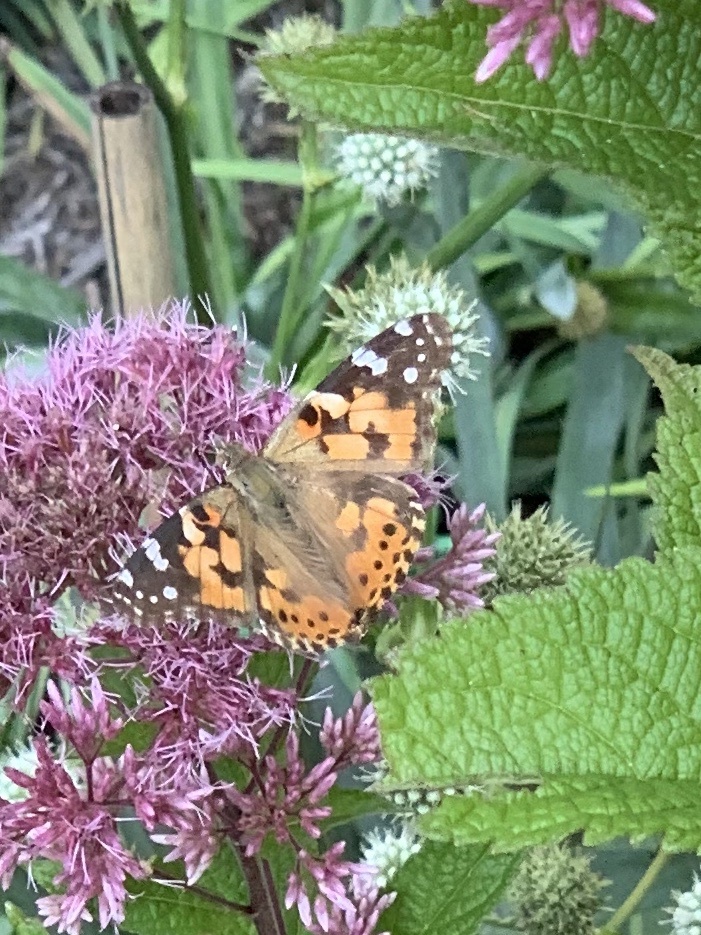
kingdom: Animalia
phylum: Arthropoda
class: Insecta
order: Lepidoptera
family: Nymphalidae
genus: Vanessa
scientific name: Vanessa cardui
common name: Painted lady
